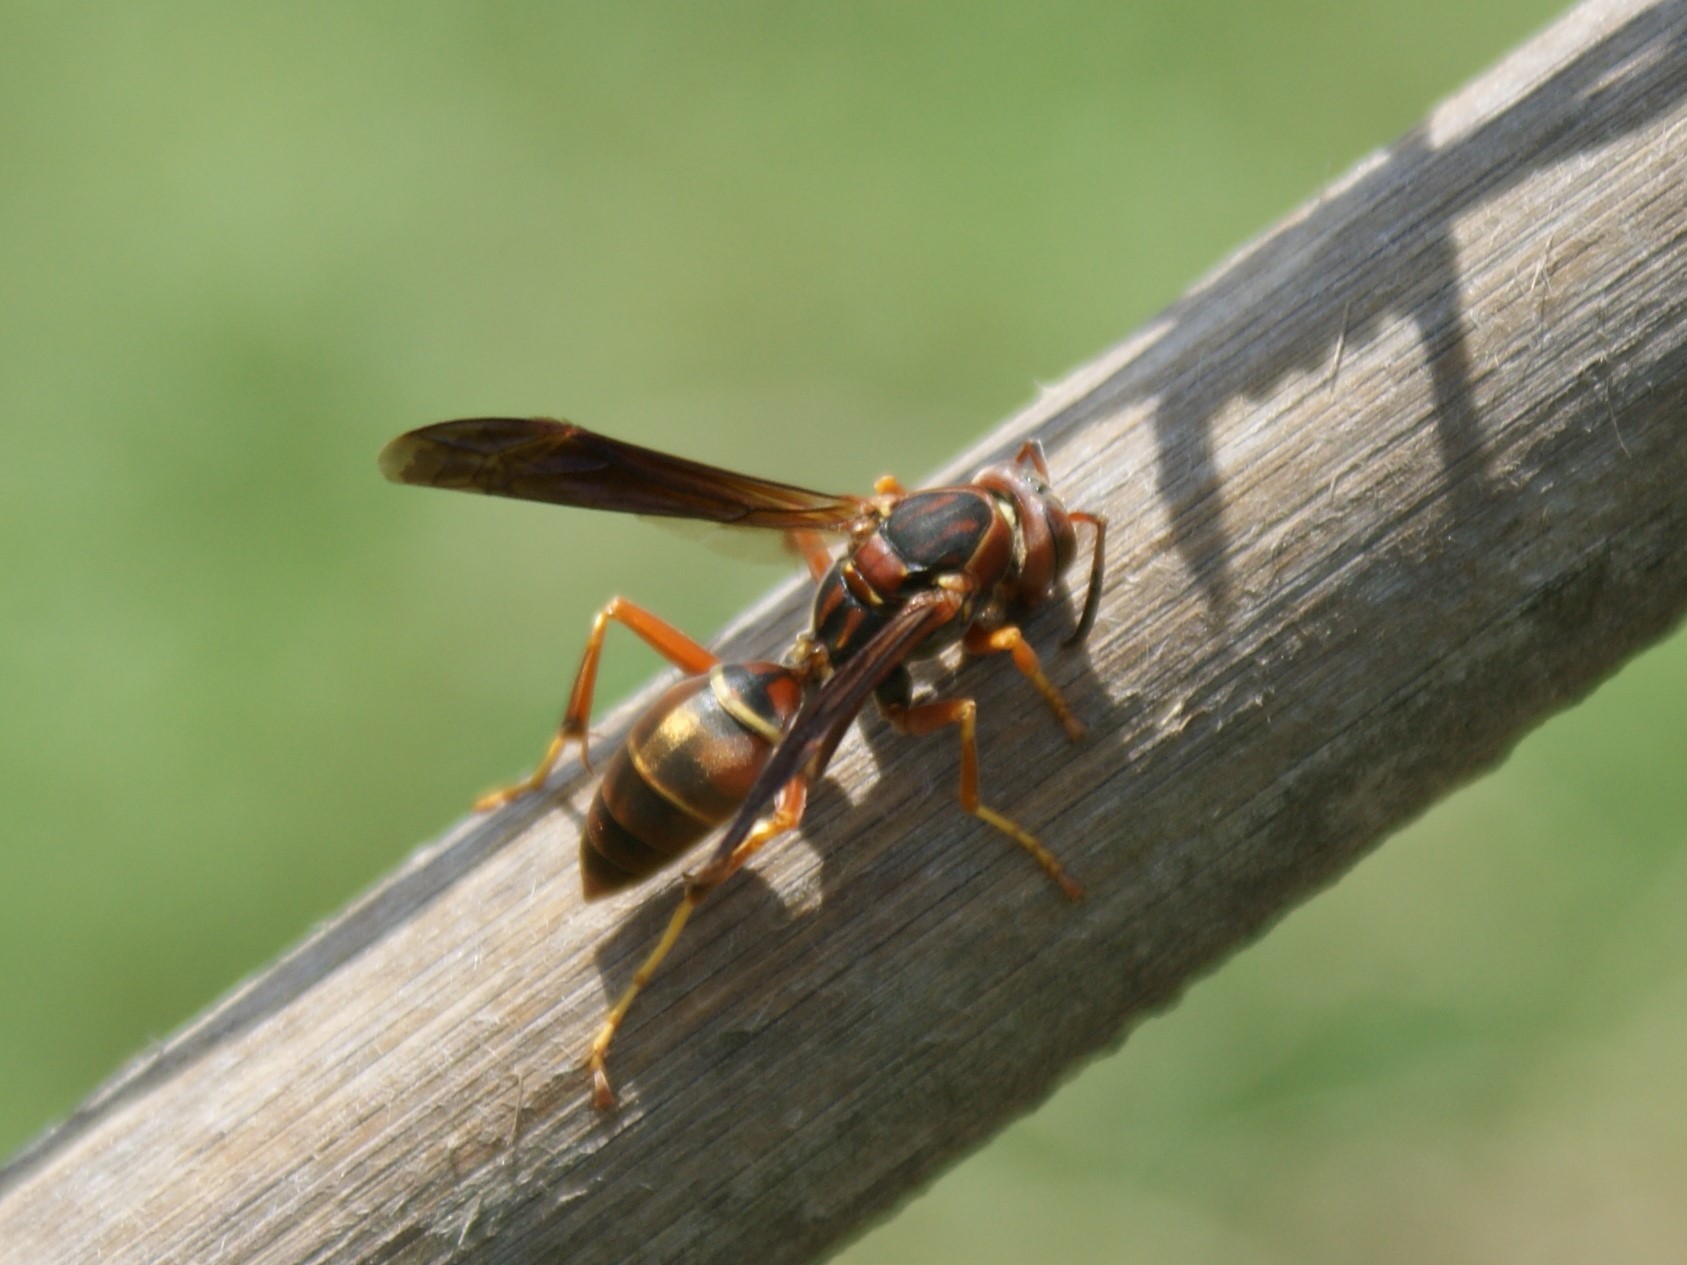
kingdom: Animalia
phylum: Arthropoda
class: Insecta
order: Hymenoptera
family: Eumenidae
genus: Polistes
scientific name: Polistes fuscatus
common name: Dark paper wasp
